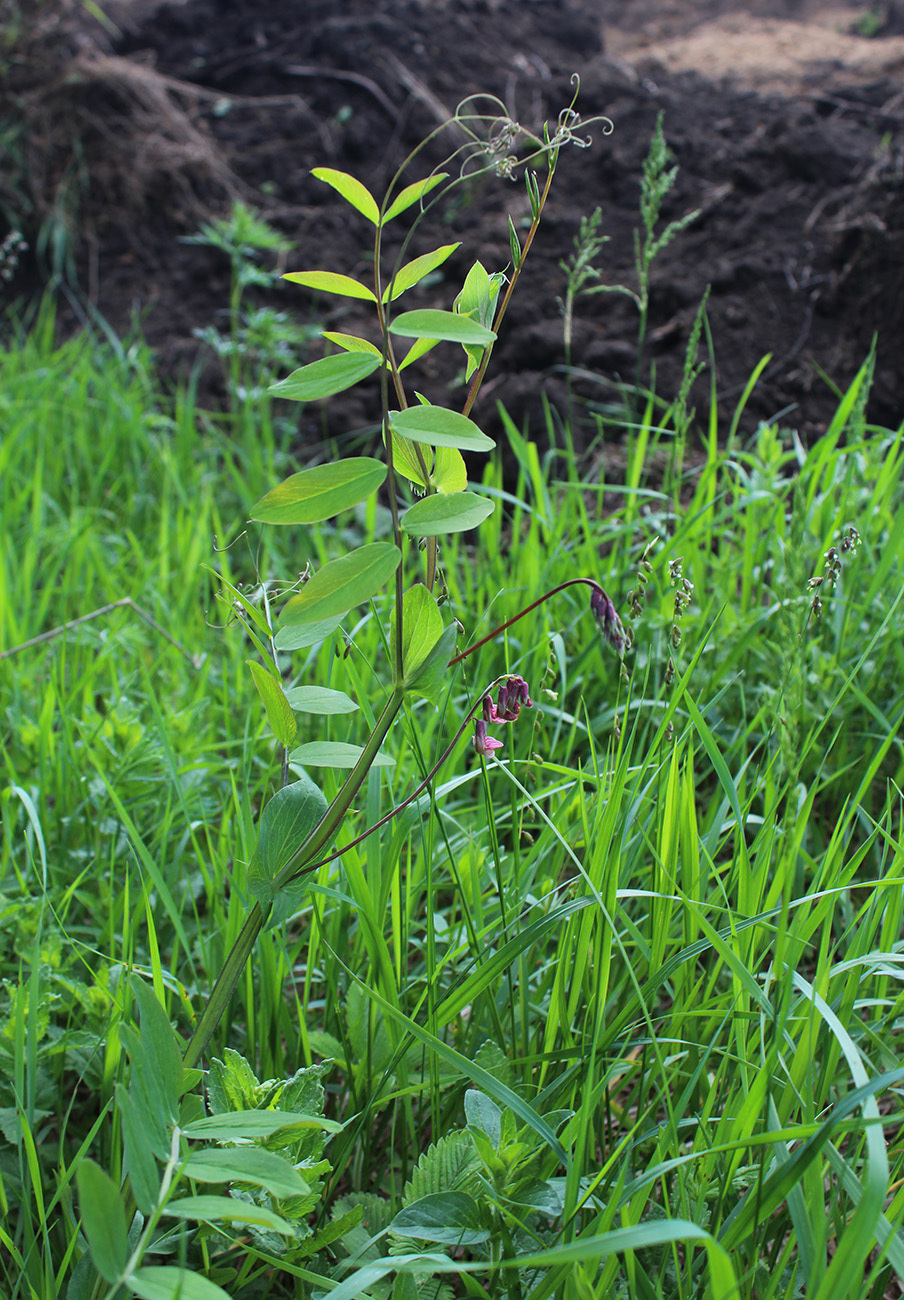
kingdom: Plantae
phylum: Tracheophyta
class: Magnoliopsida
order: Fabales
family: Fabaceae
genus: Lathyrus
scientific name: Lathyrus pisiformis
